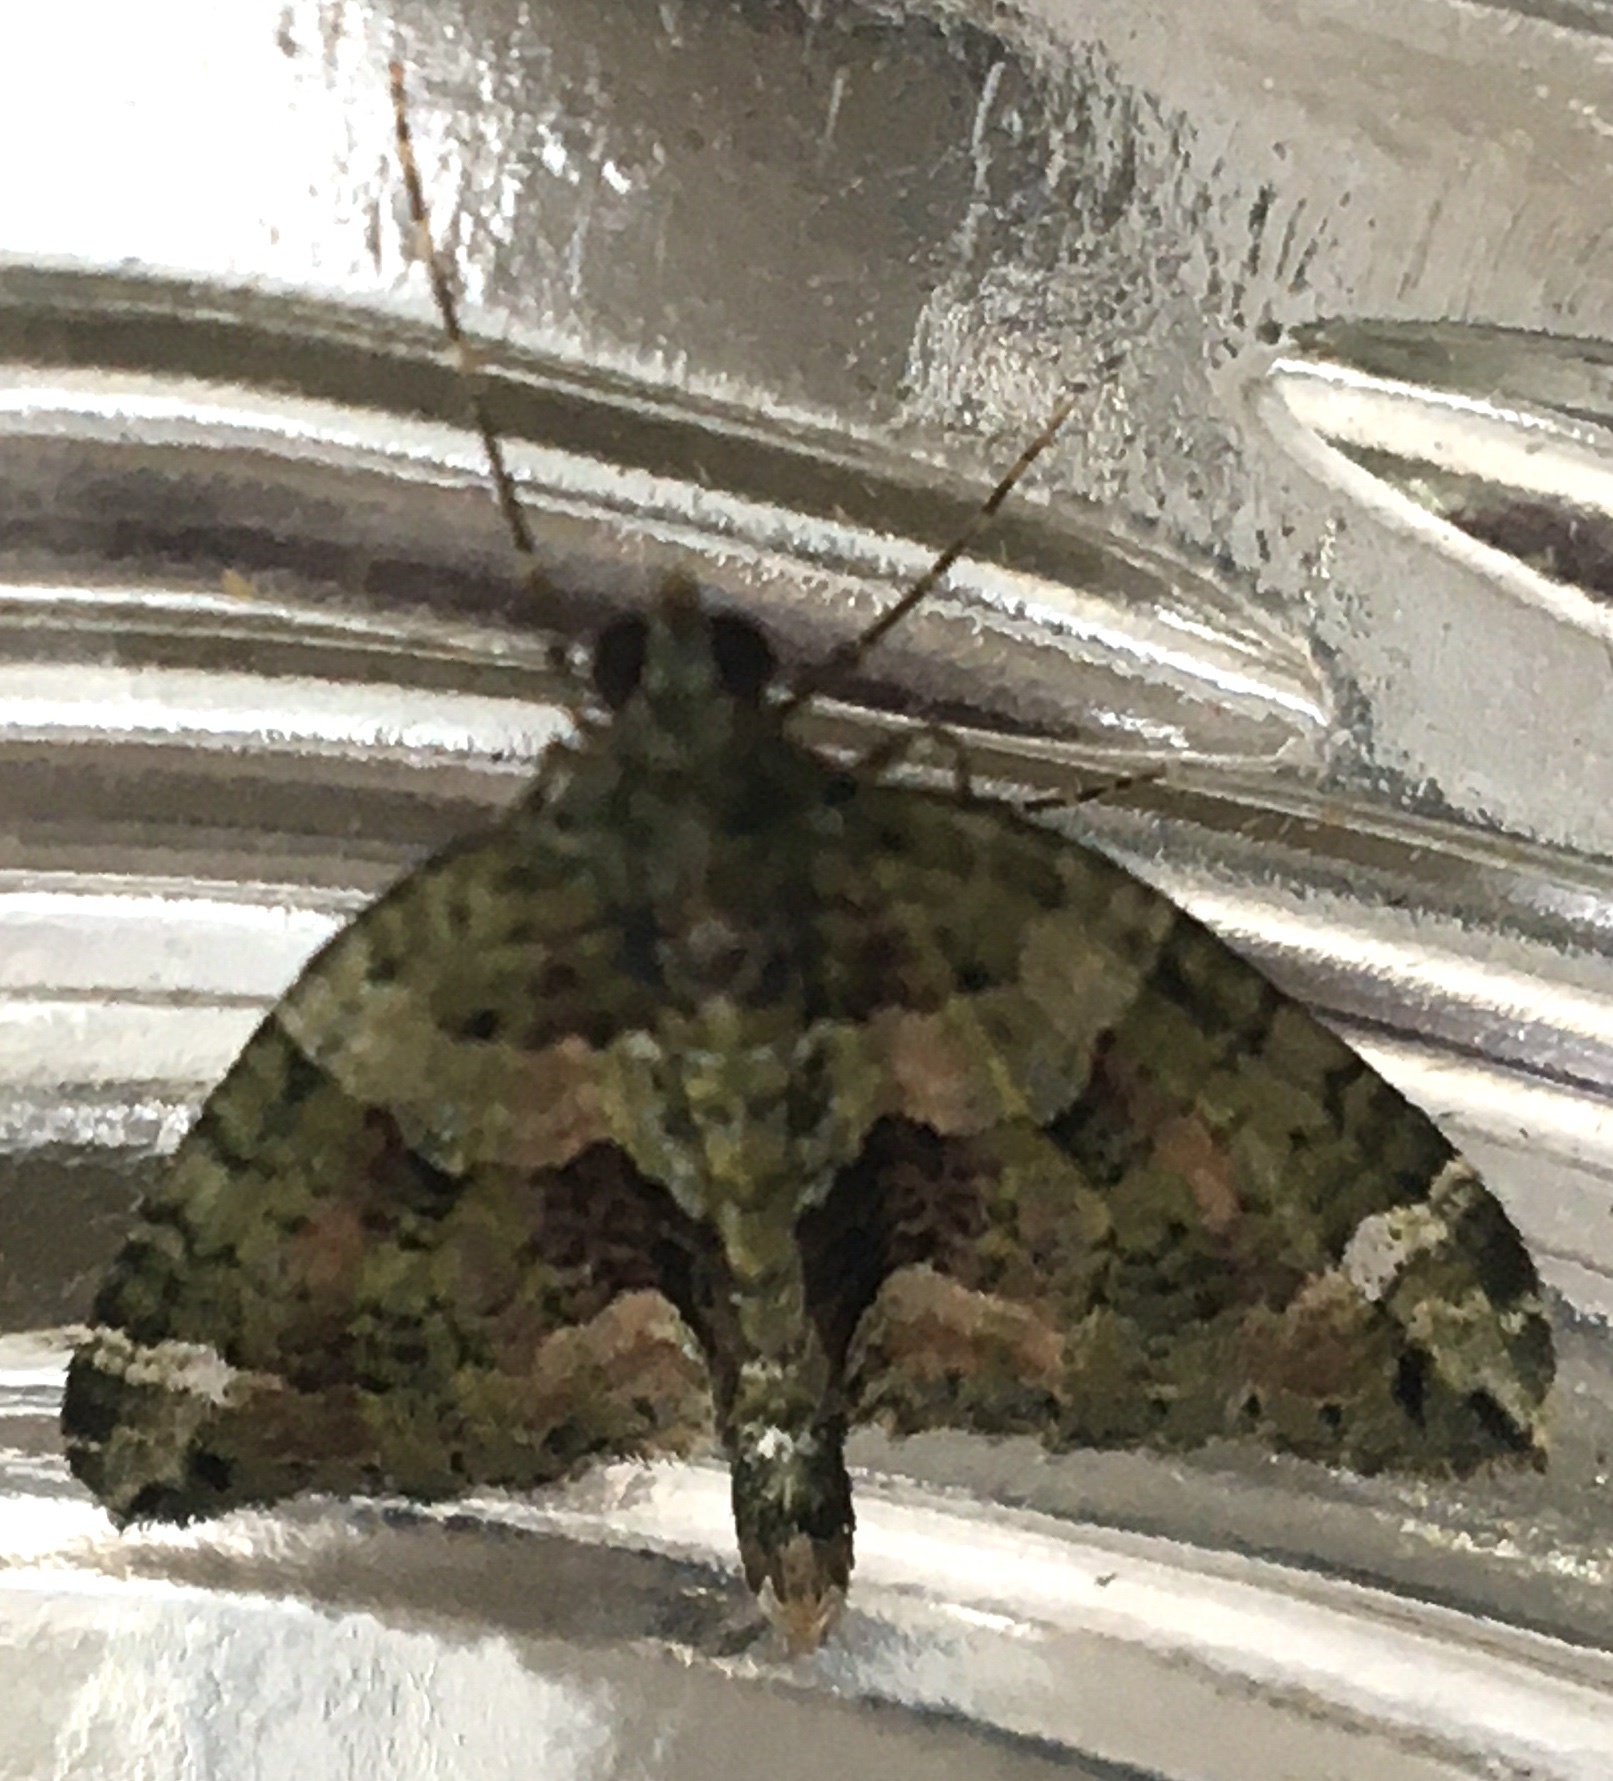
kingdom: Animalia
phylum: Arthropoda
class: Insecta
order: Lepidoptera
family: Geometridae
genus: Chloroclysta
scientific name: Chloroclysta siterata
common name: Red-green carpet
